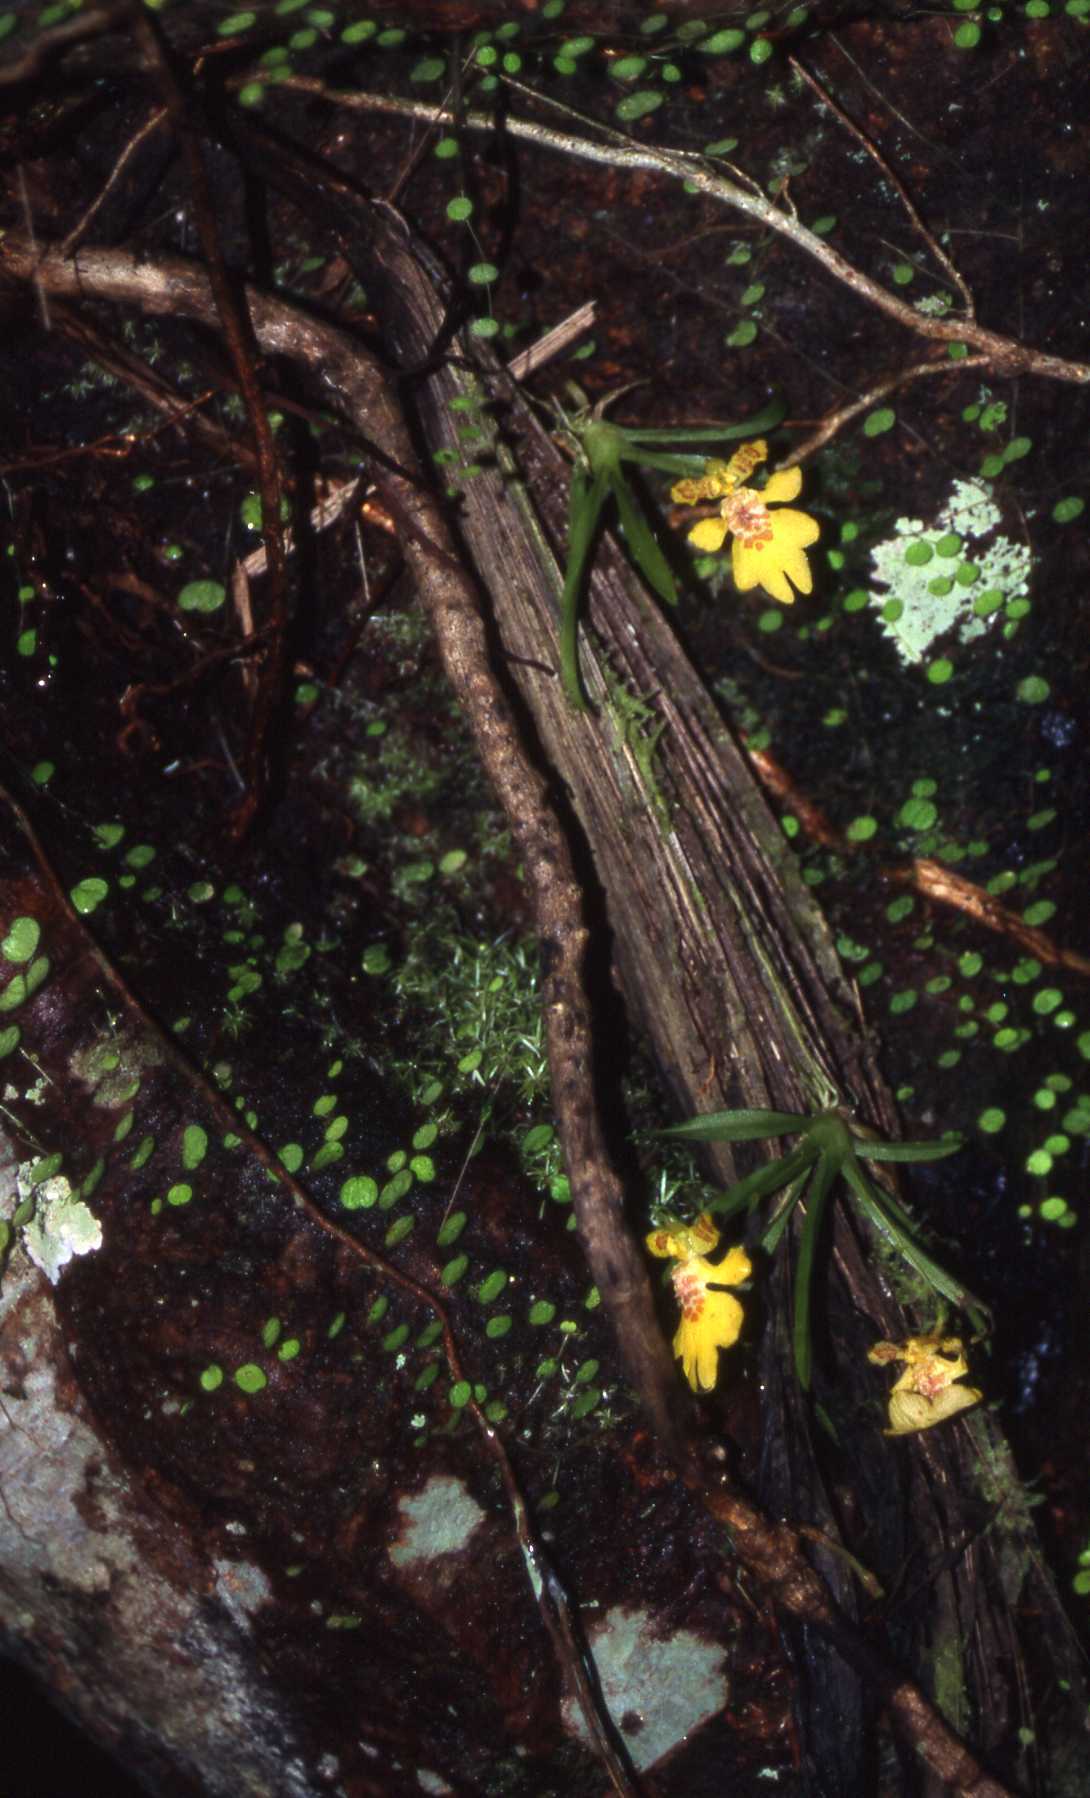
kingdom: Plantae
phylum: Tracheophyta
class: Liliopsida
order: Asparagales
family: Orchidaceae
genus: Erycina
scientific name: Erycina crista-galli
